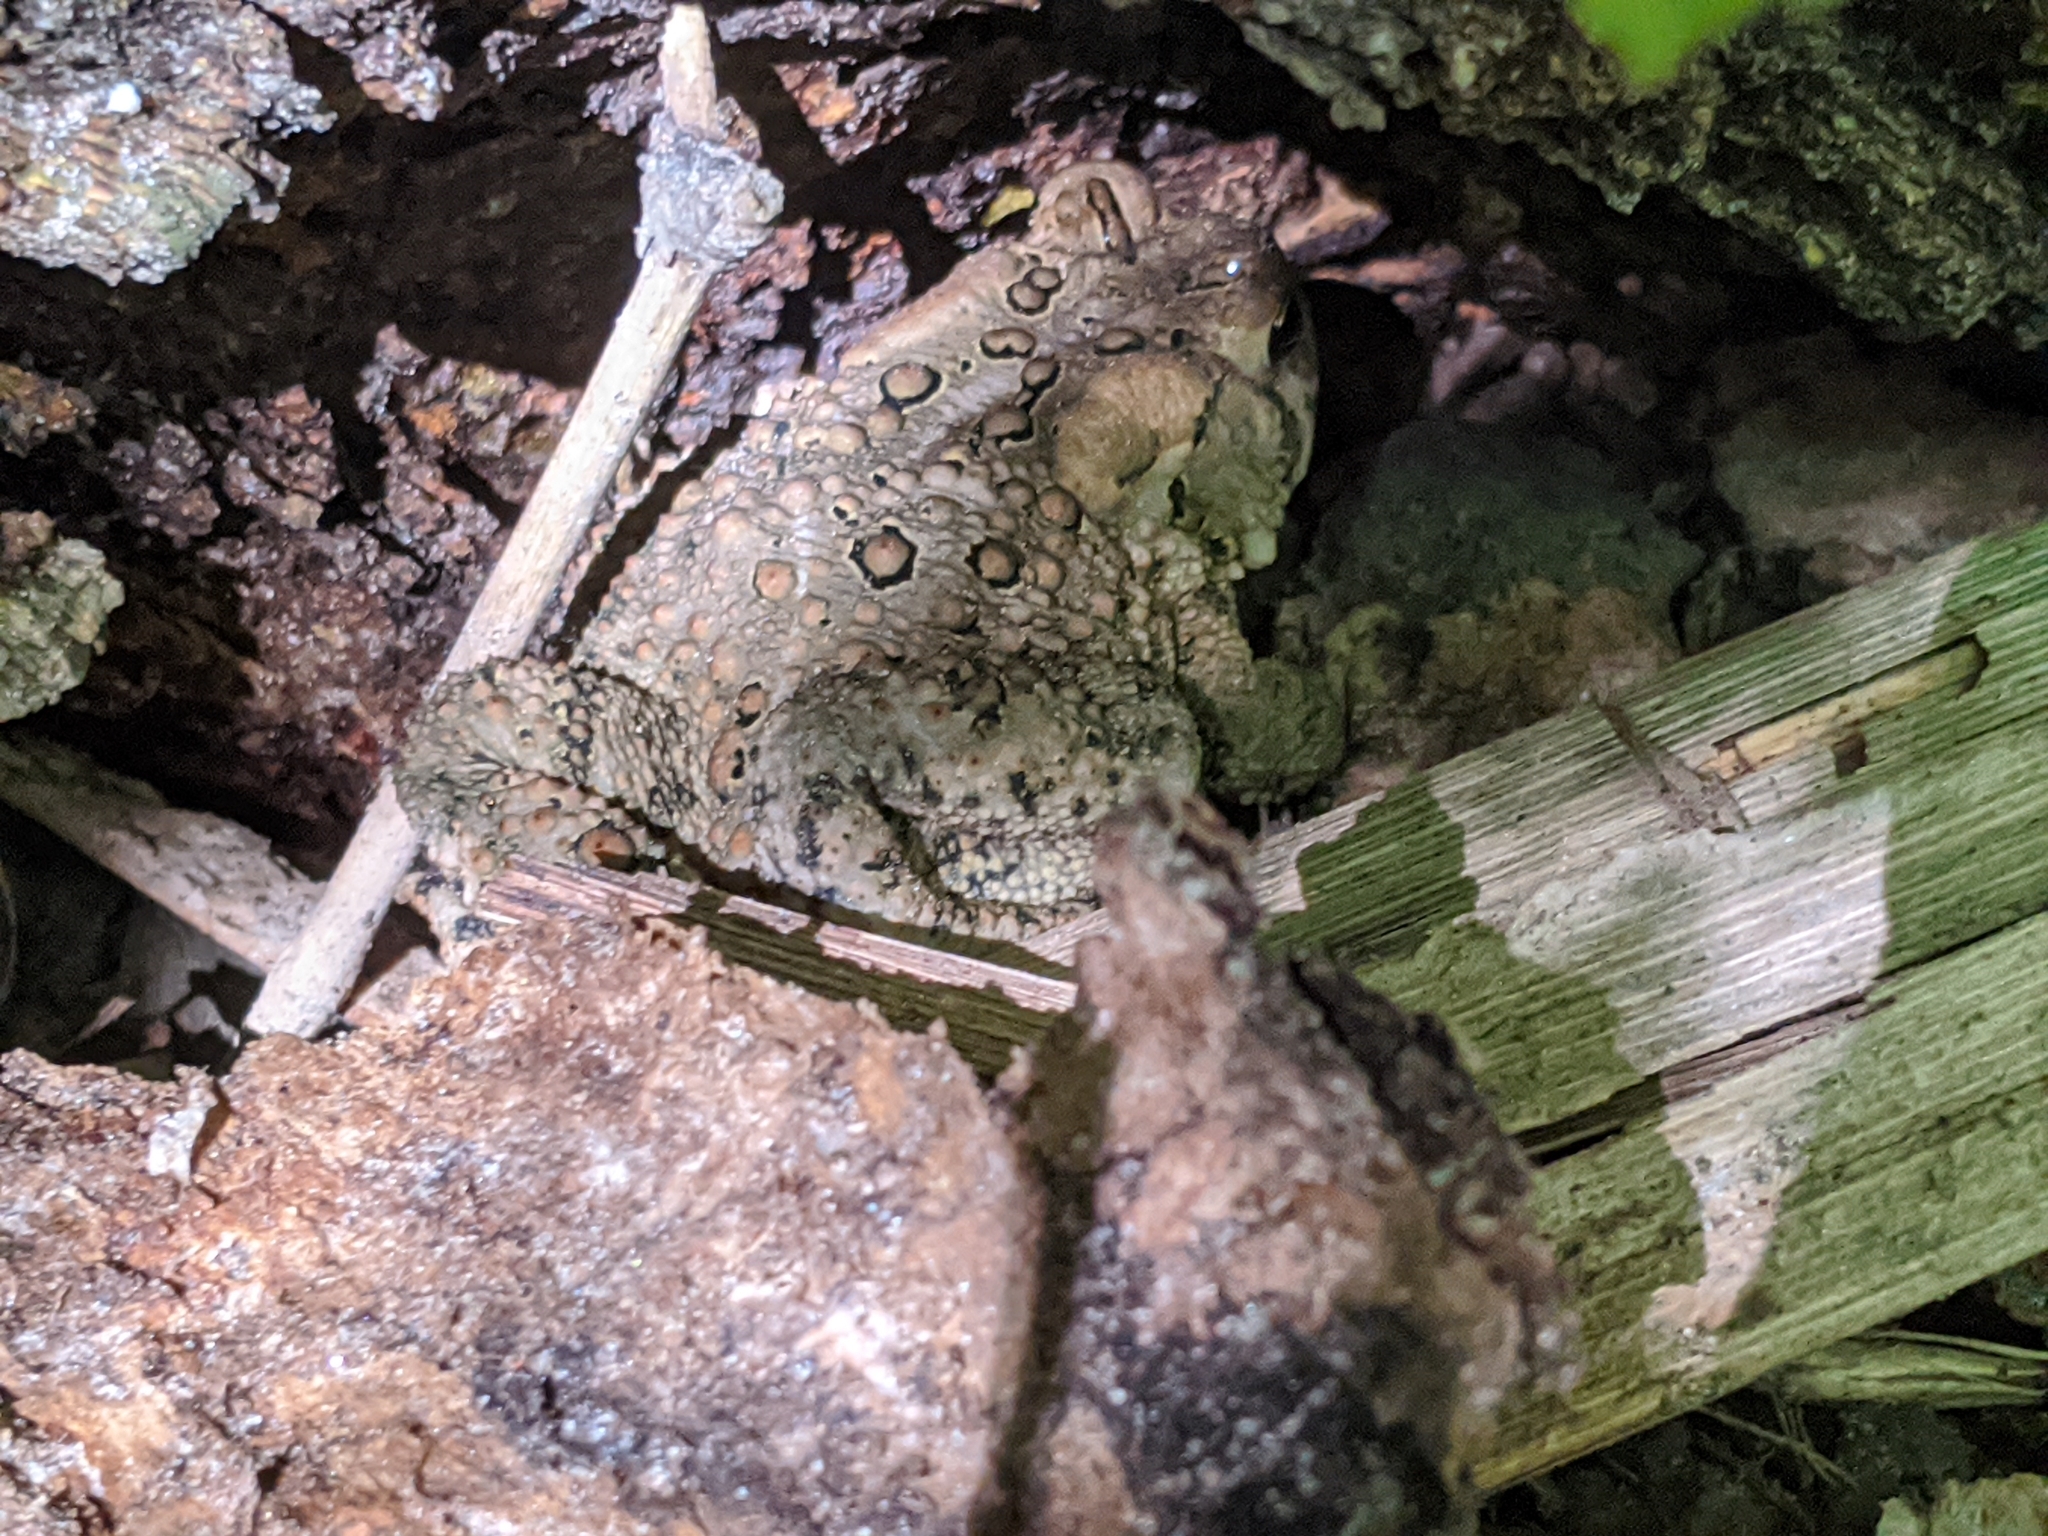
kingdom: Animalia
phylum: Chordata
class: Amphibia
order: Anura
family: Bufonidae
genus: Anaxyrus
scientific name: Anaxyrus americanus
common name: American toad
